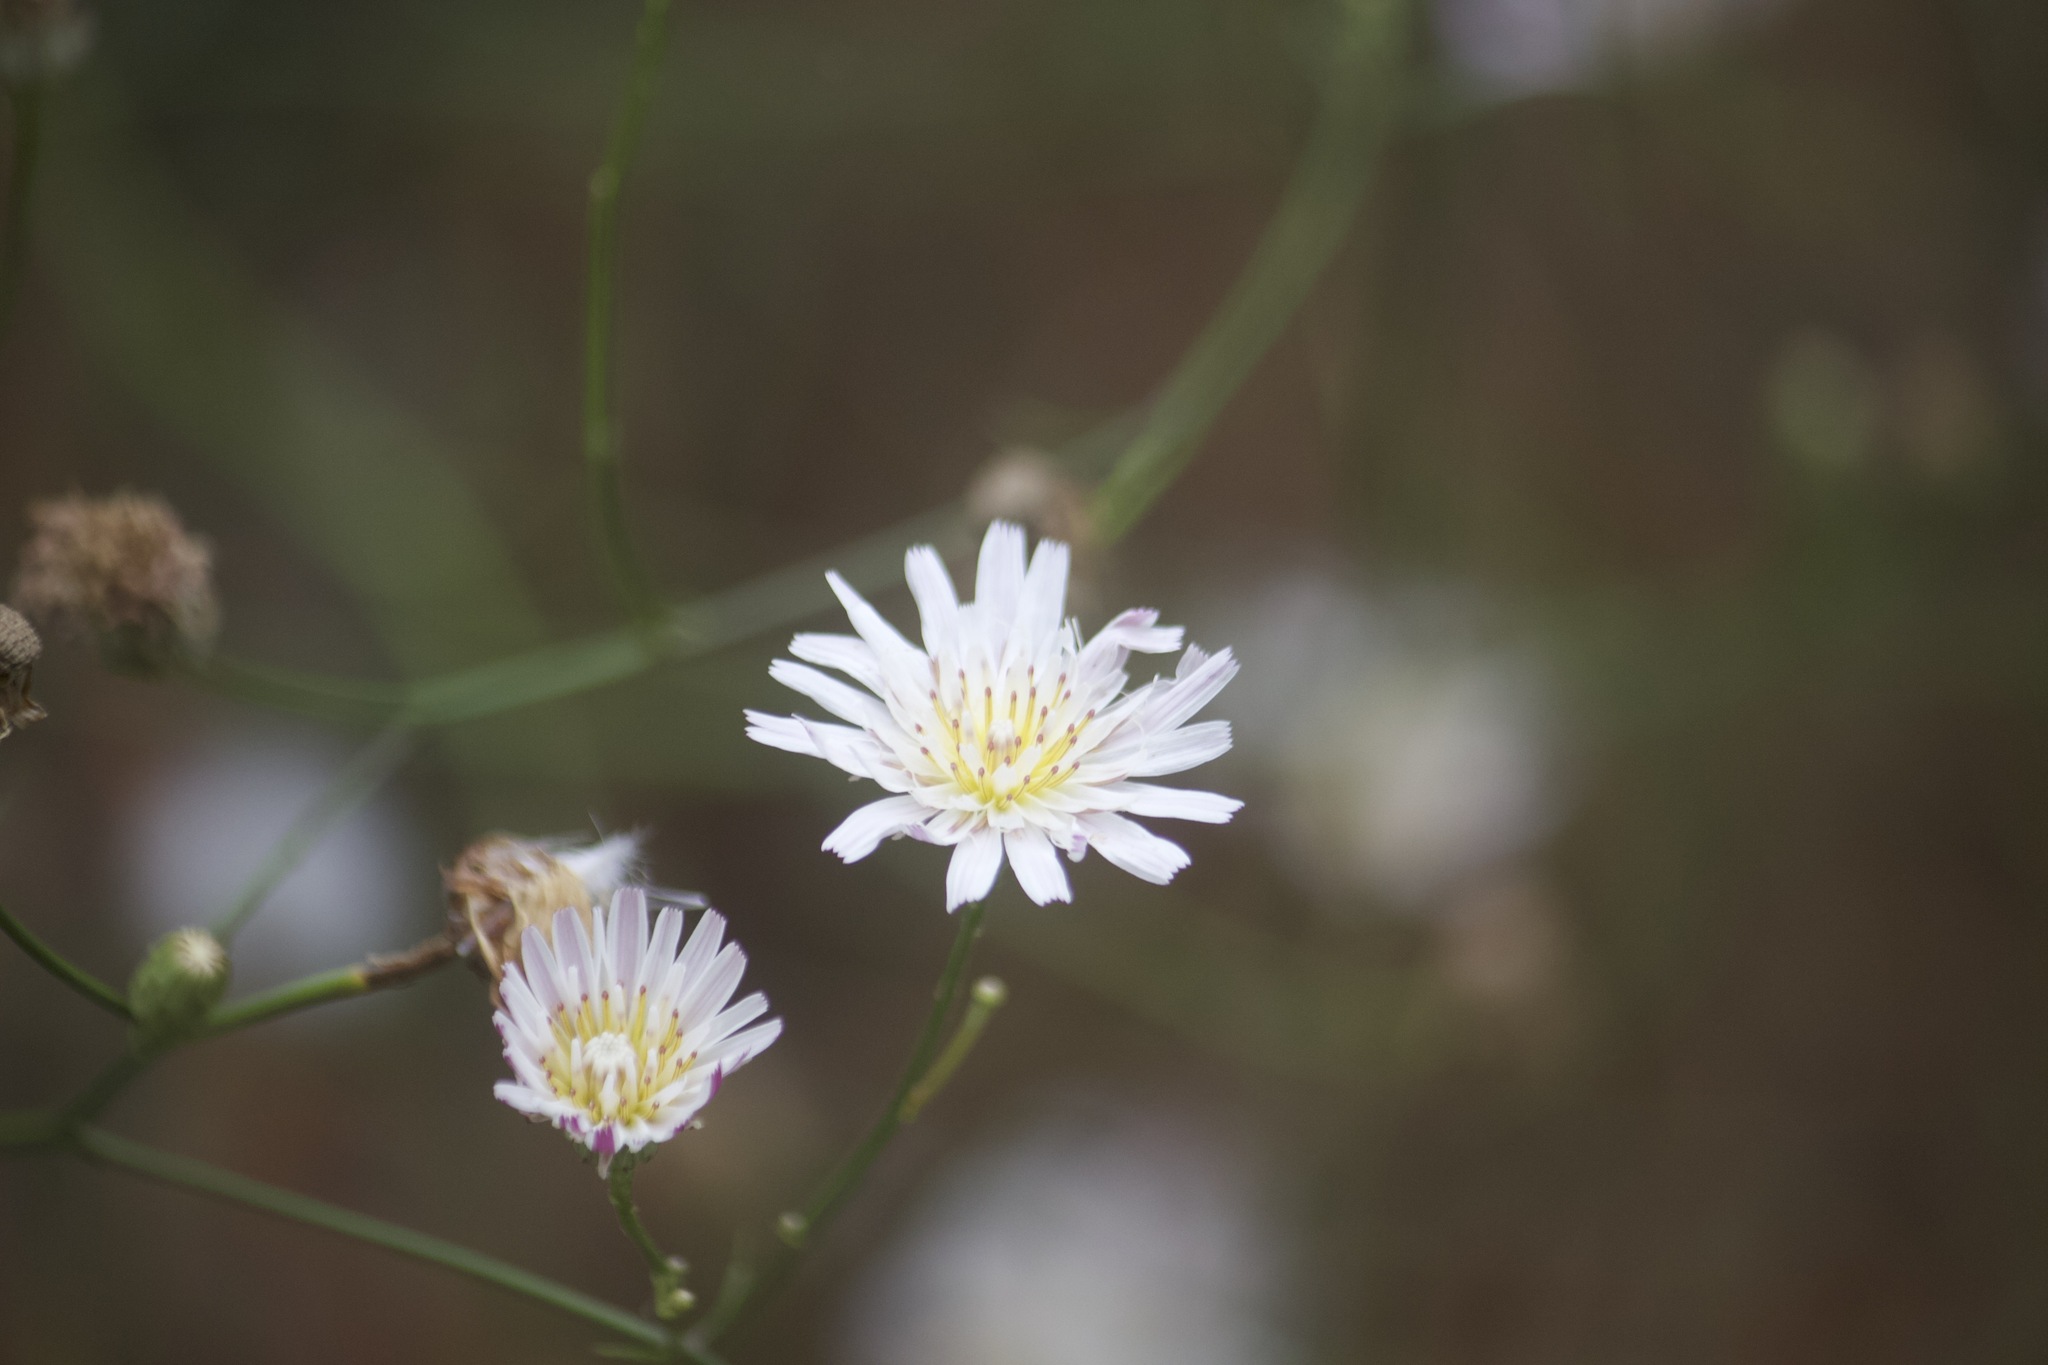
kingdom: Plantae
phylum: Tracheophyta
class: Magnoliopsida
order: Asterales
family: Asteraceae
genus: Malacothrix
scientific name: Malacothrix saxatilis
